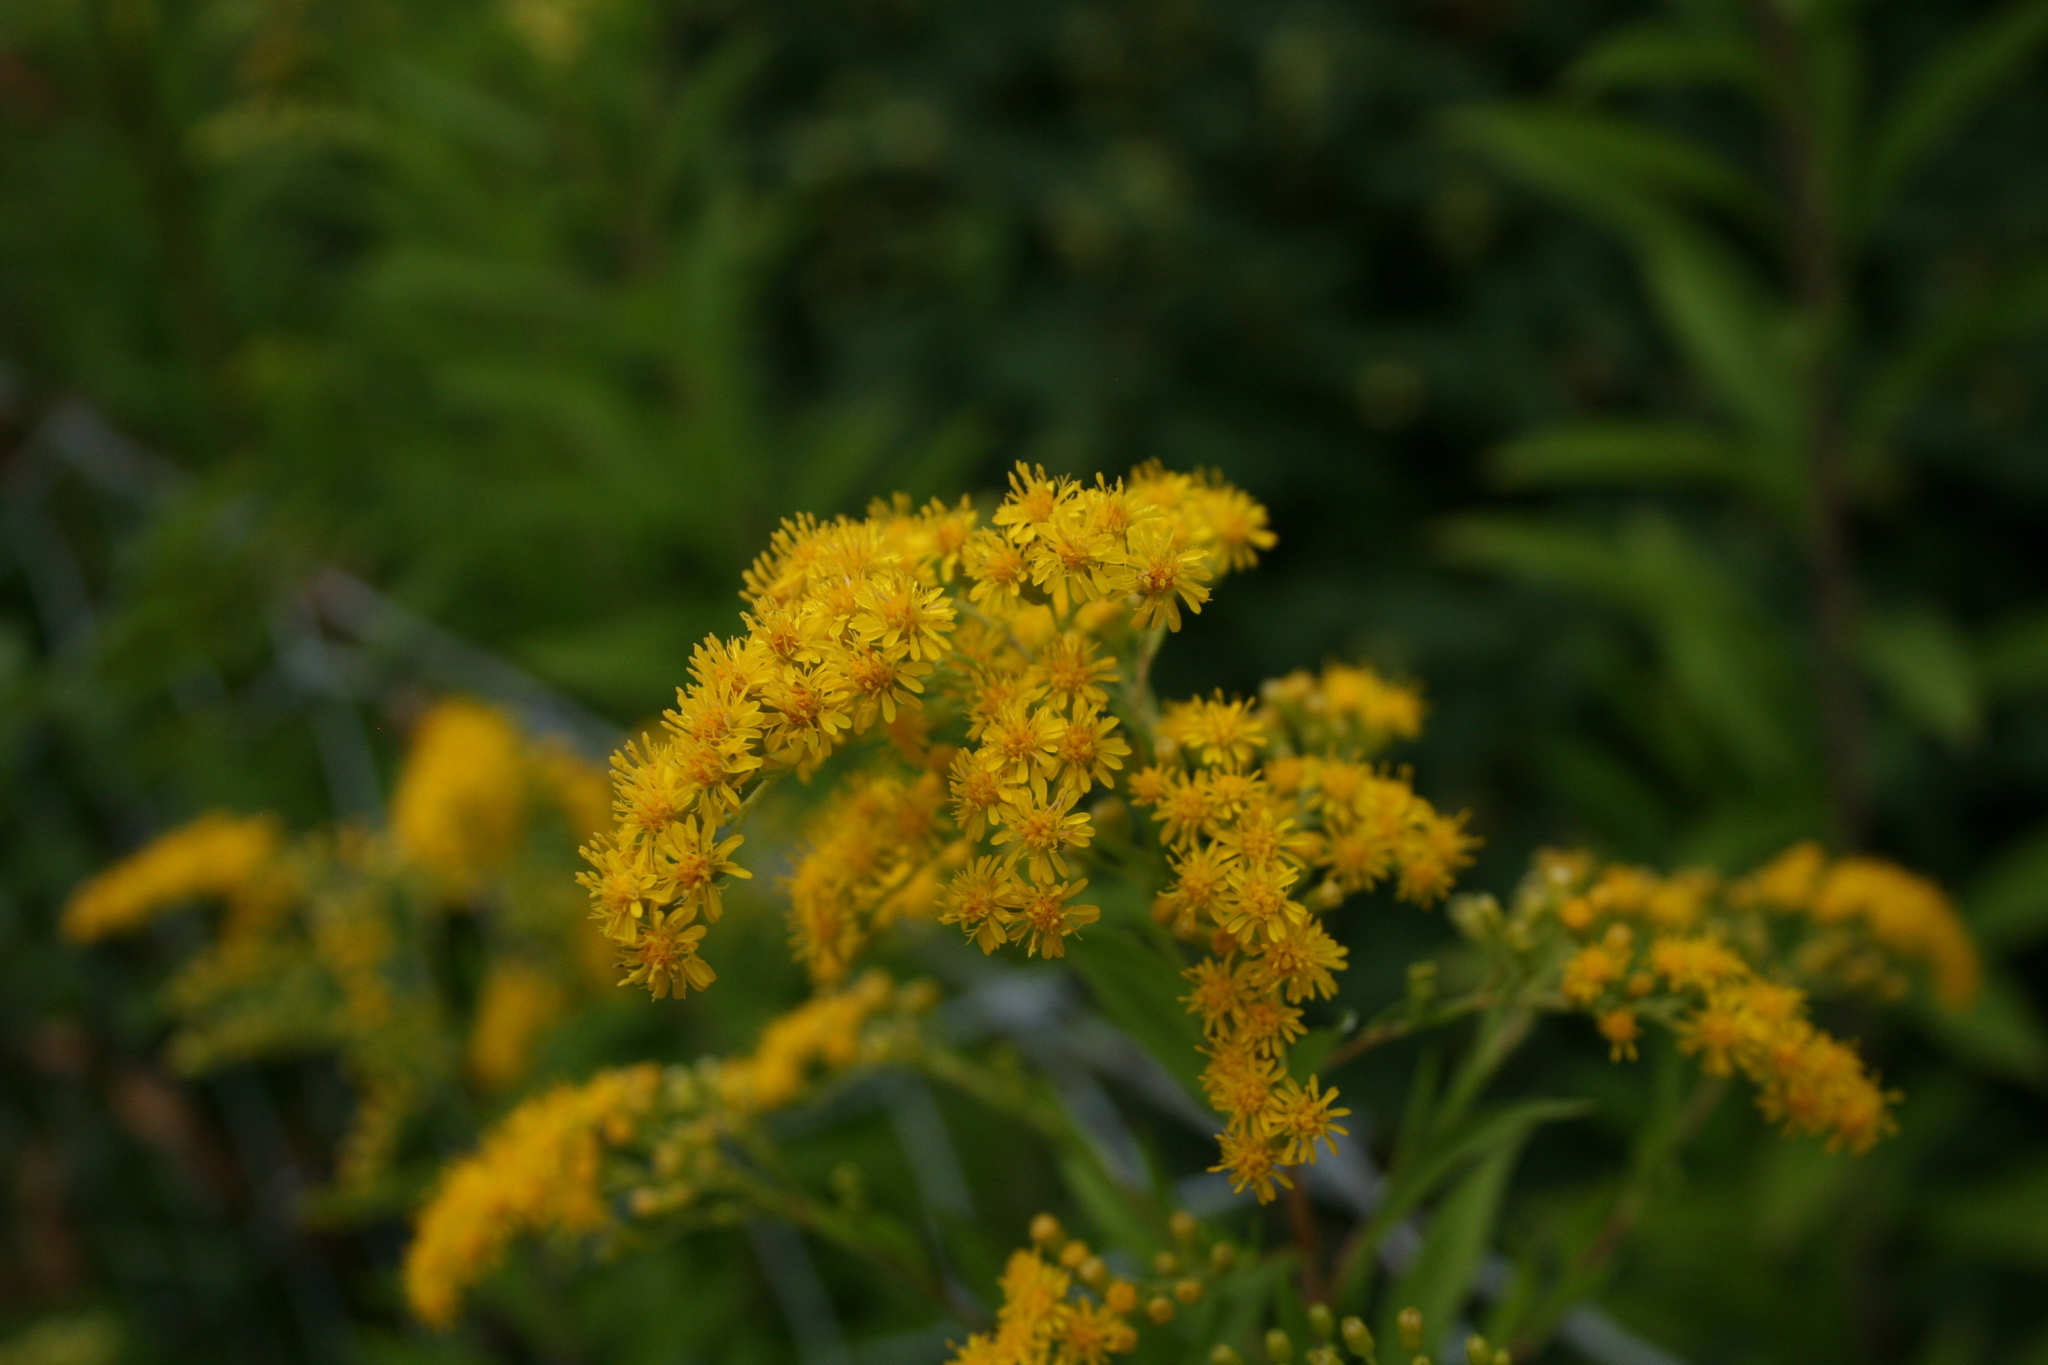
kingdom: Plantae
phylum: Tracheophyta
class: Magnoliopsida
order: Asterales
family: Asteraceae
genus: Solidago
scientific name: Solidago gigantea
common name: Giant goldenrod
